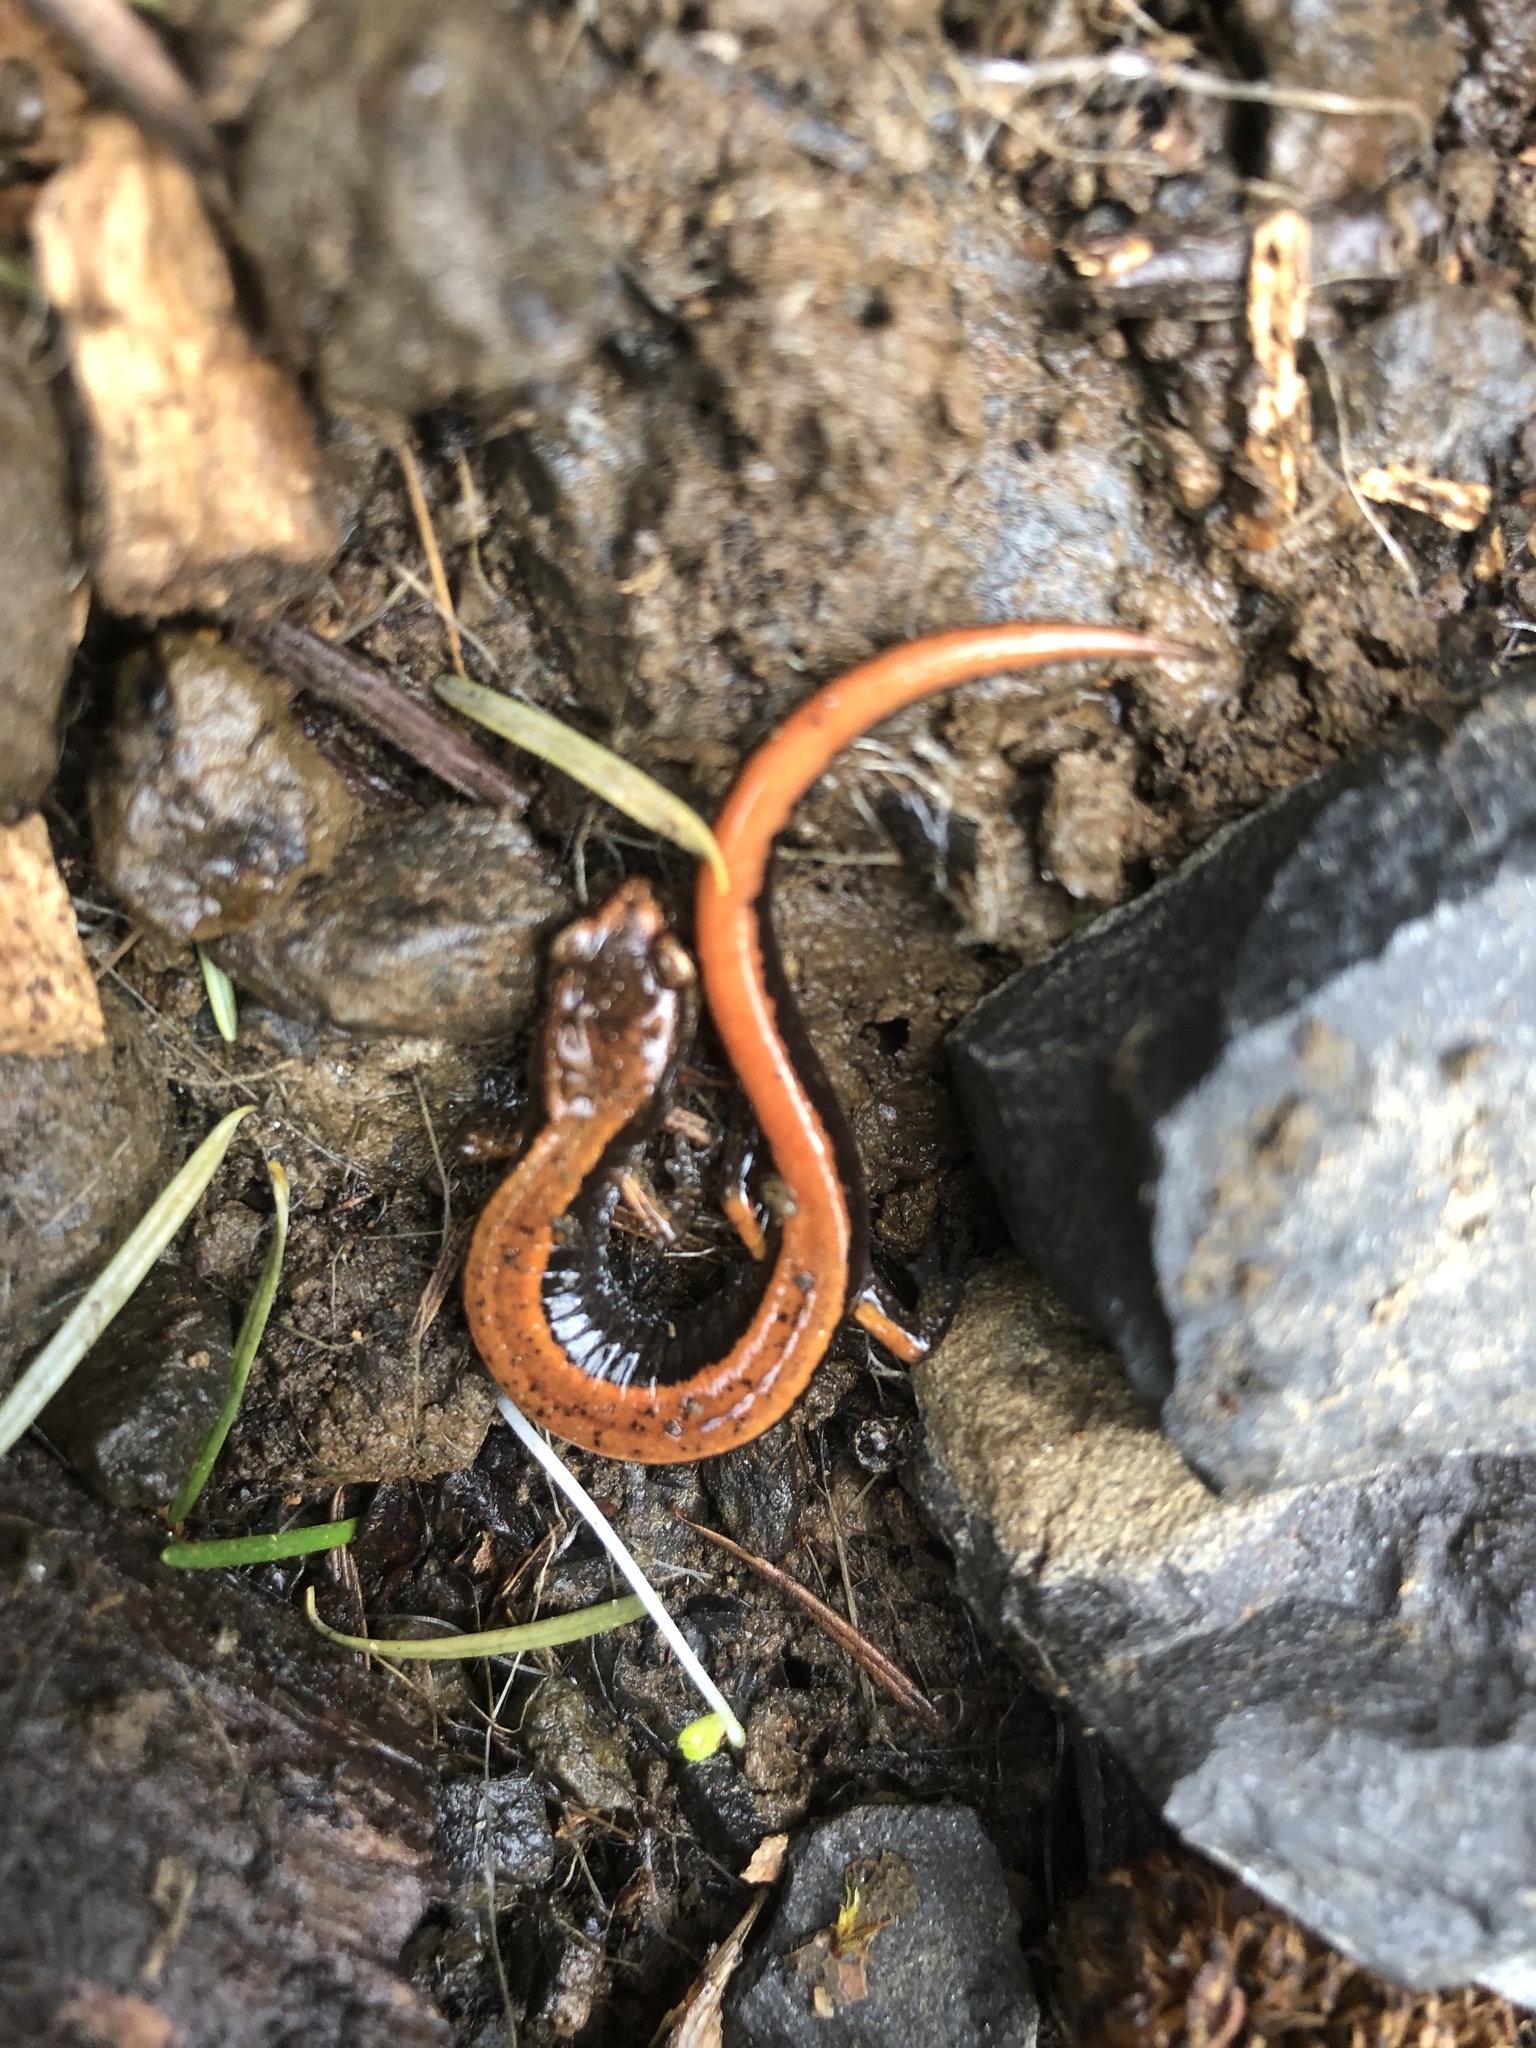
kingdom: Animalia
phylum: Chordata
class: Amphibia
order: Caudata
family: Plethodontidae
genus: Plethodon
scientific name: Plethodon vehiculum
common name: Western red-backed salamander
